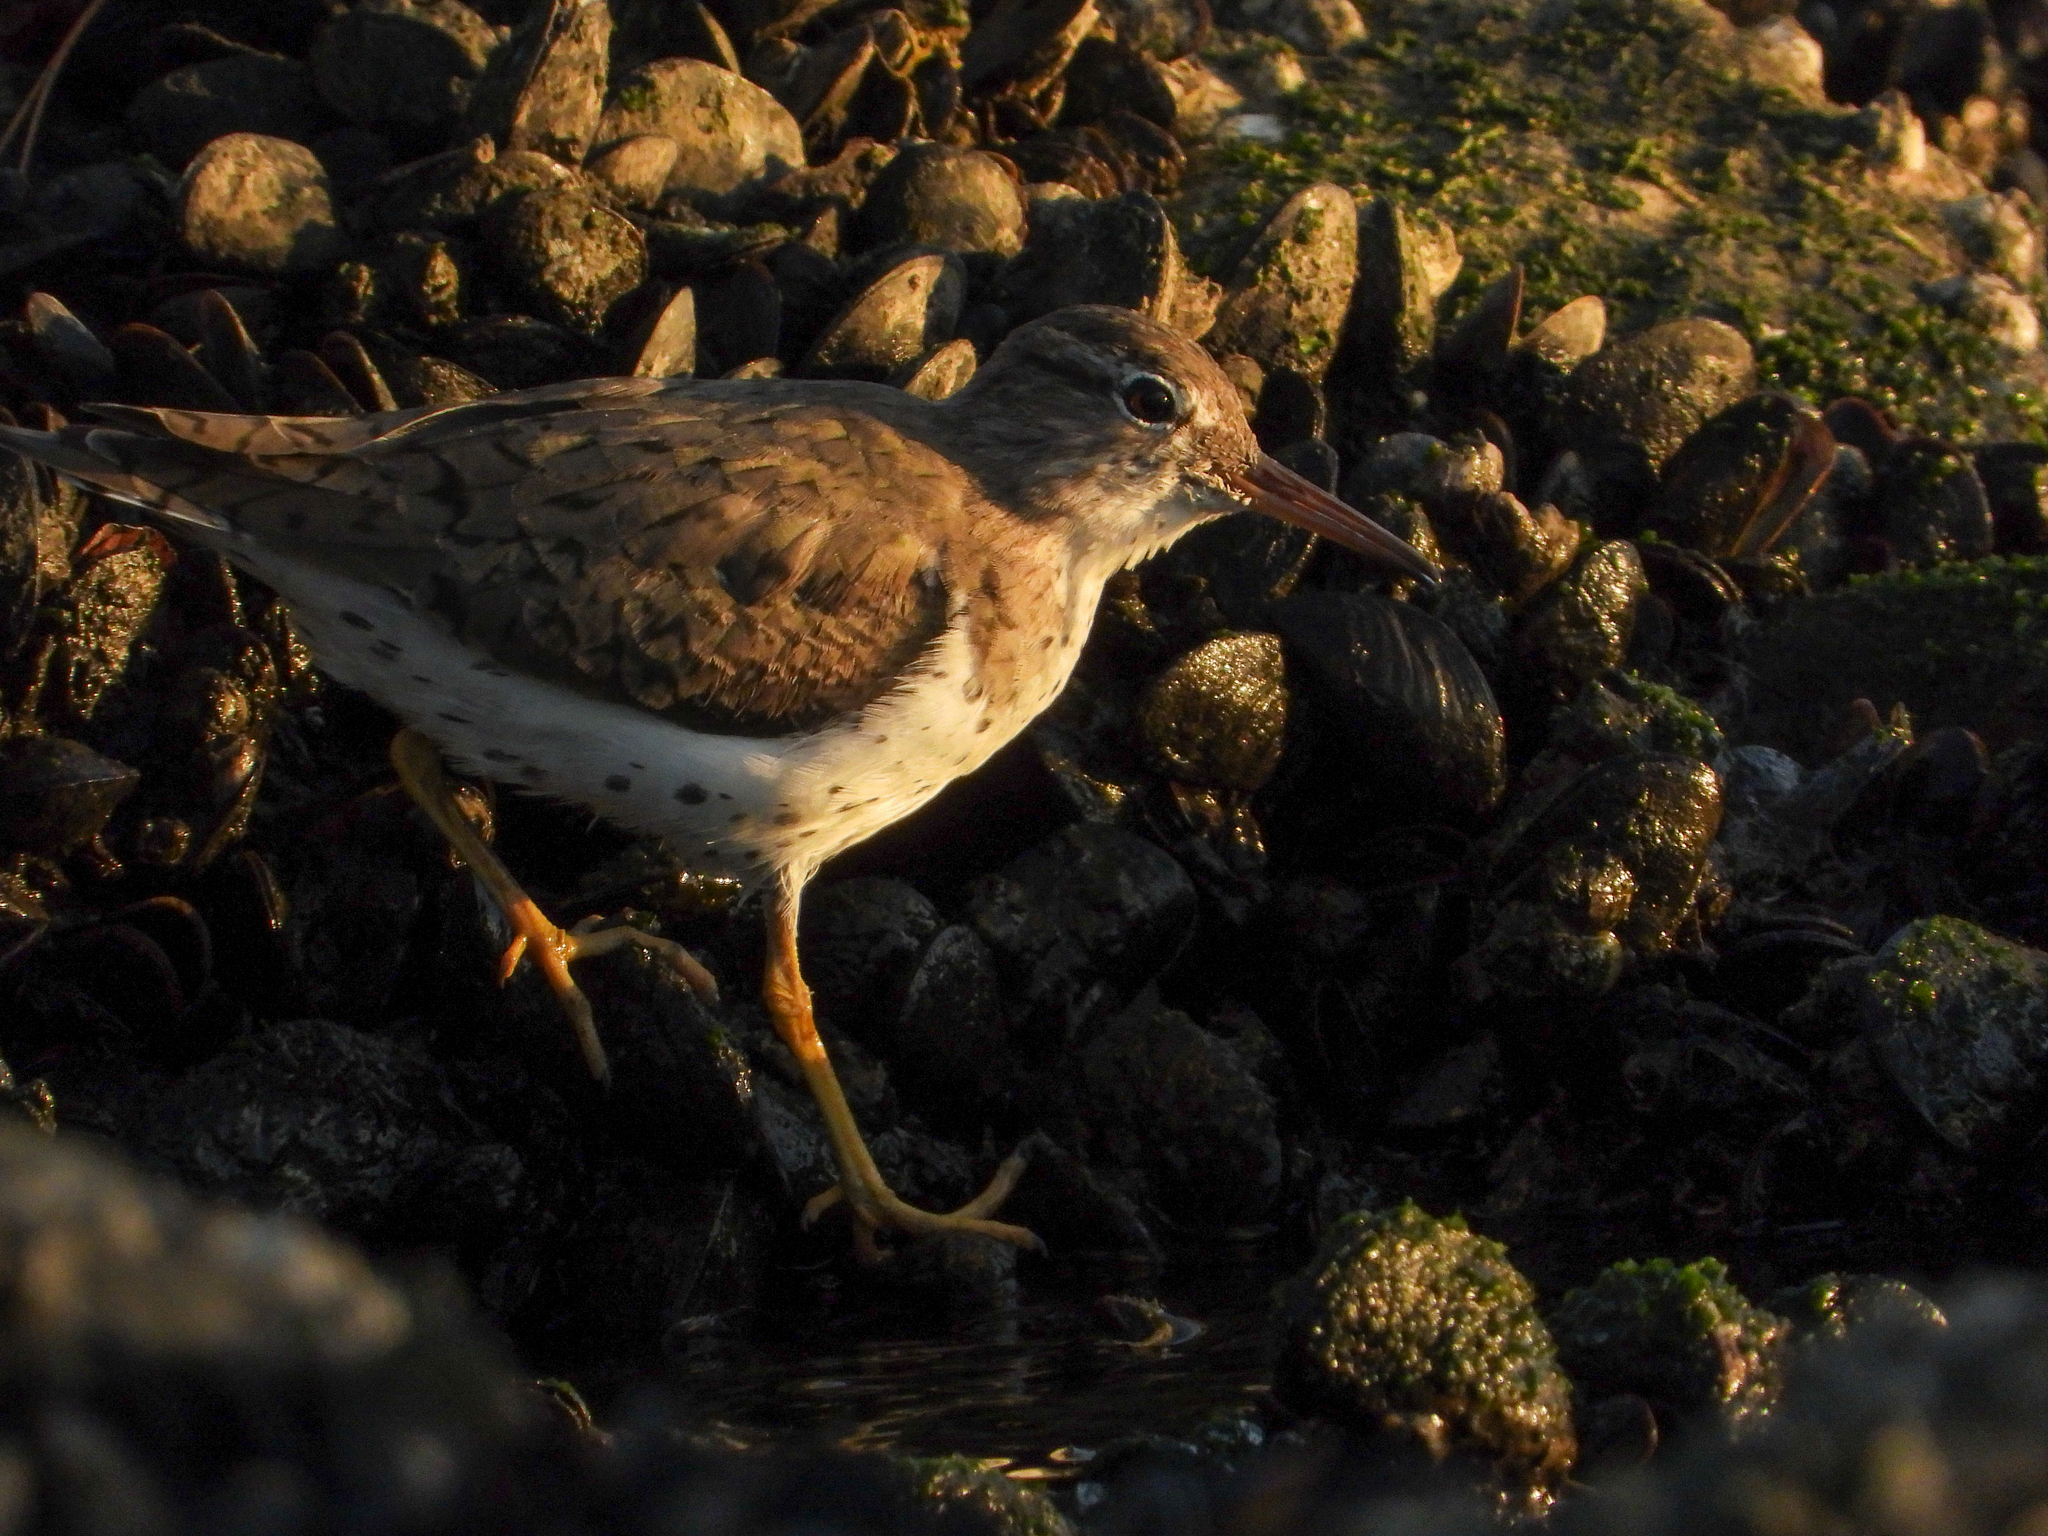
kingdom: Animalia
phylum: Chordata
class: Aves
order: Charadriiformes
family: Scolopacidae
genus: Actitis
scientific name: Actitis macularius
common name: Spotted sandpiper
